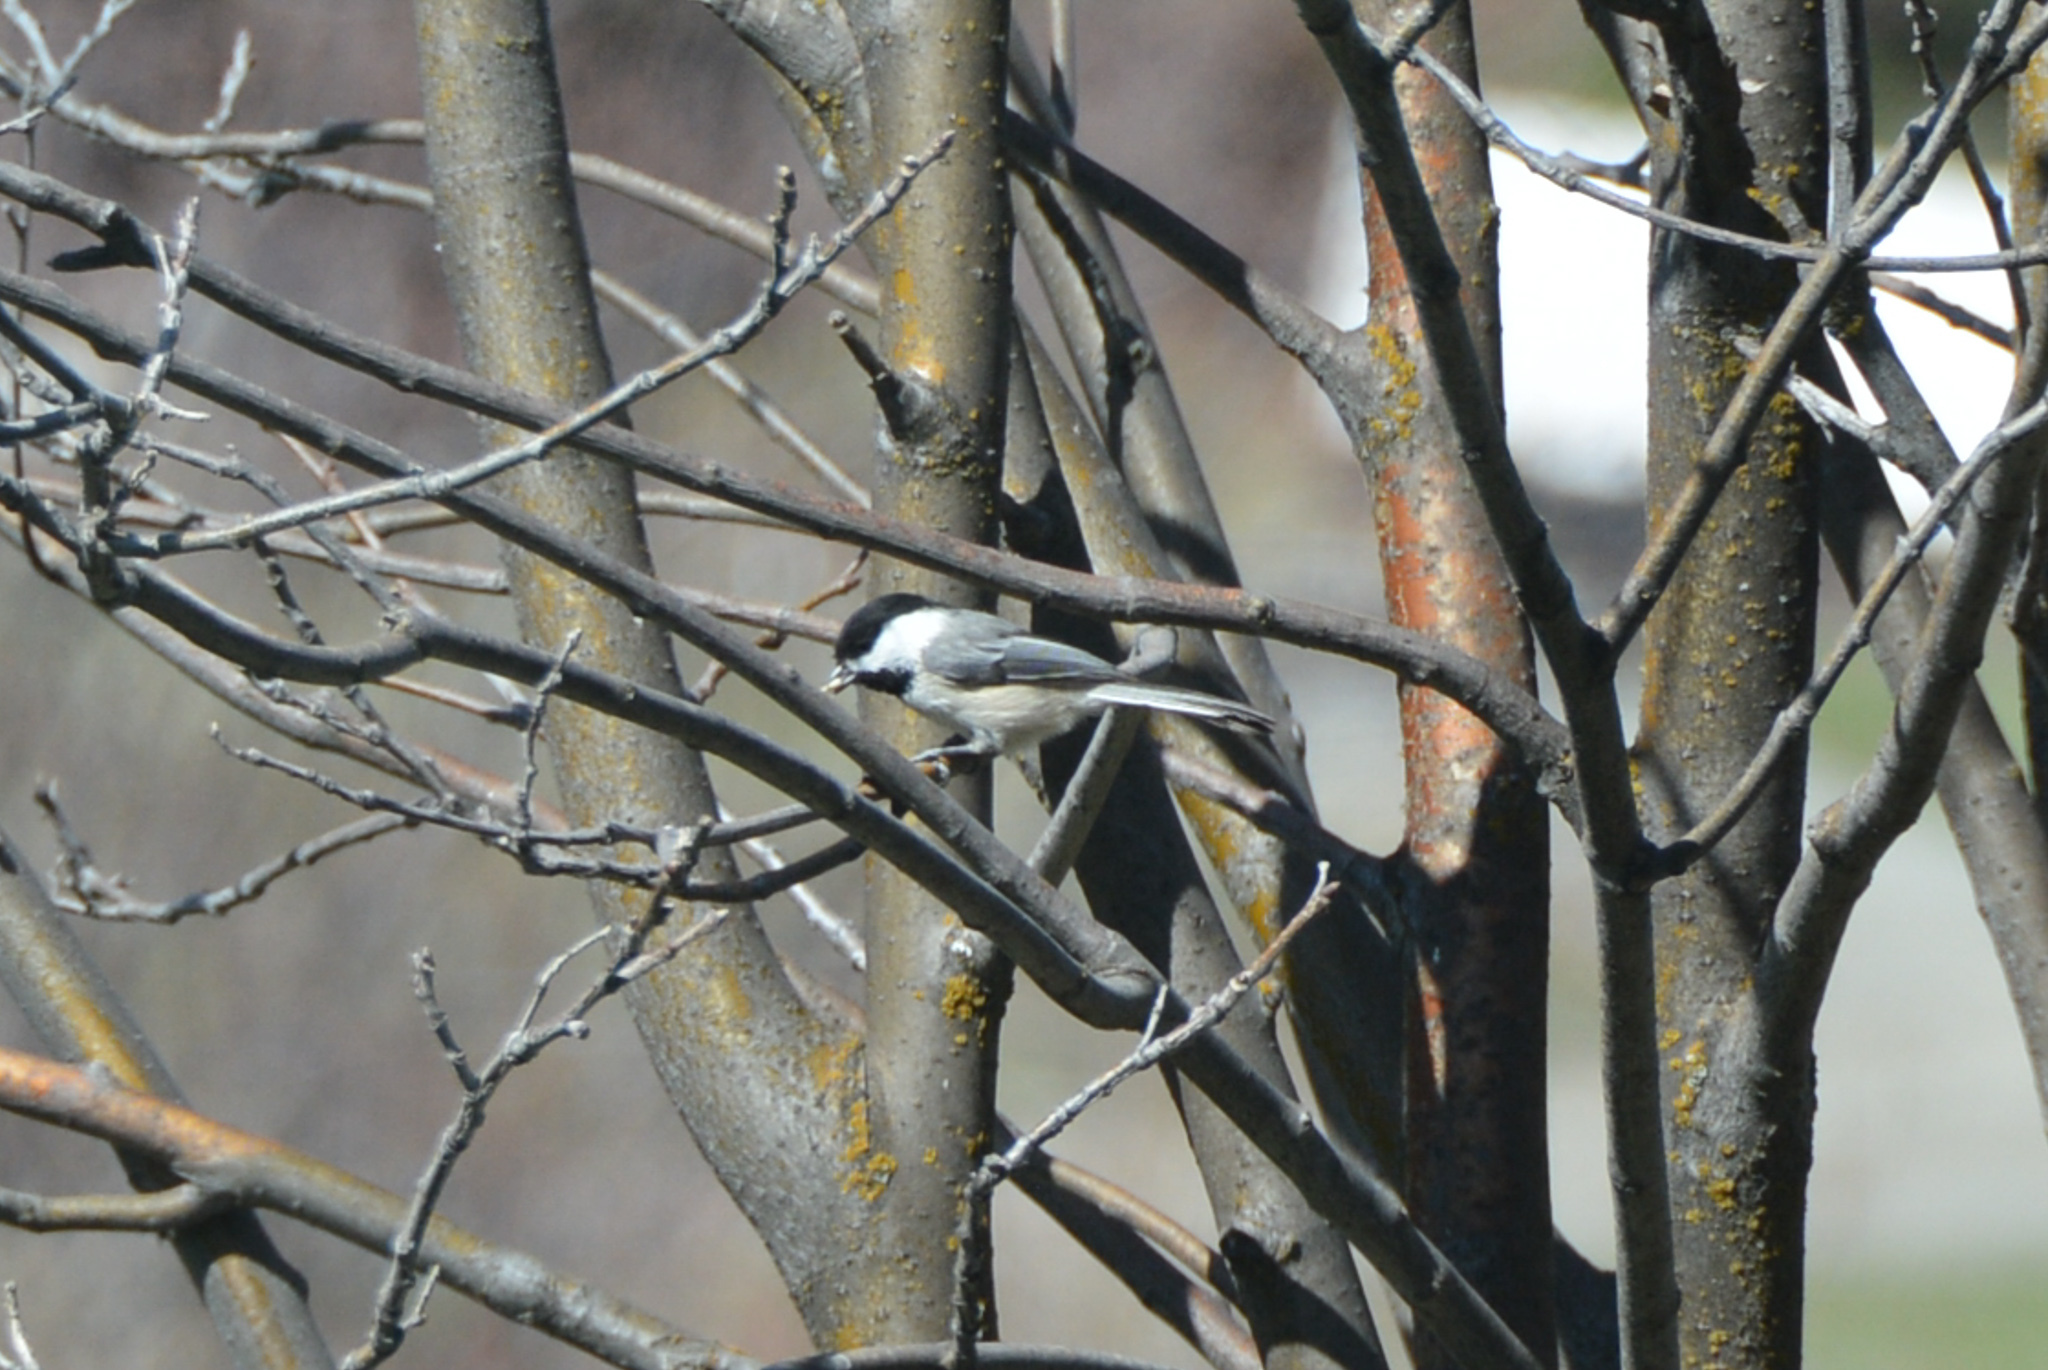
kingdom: Animalia
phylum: Chordata
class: Aves
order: Passeriformes
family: Paridae
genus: Poecile
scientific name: Poecile atricapillus
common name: Black-capped chickadee
